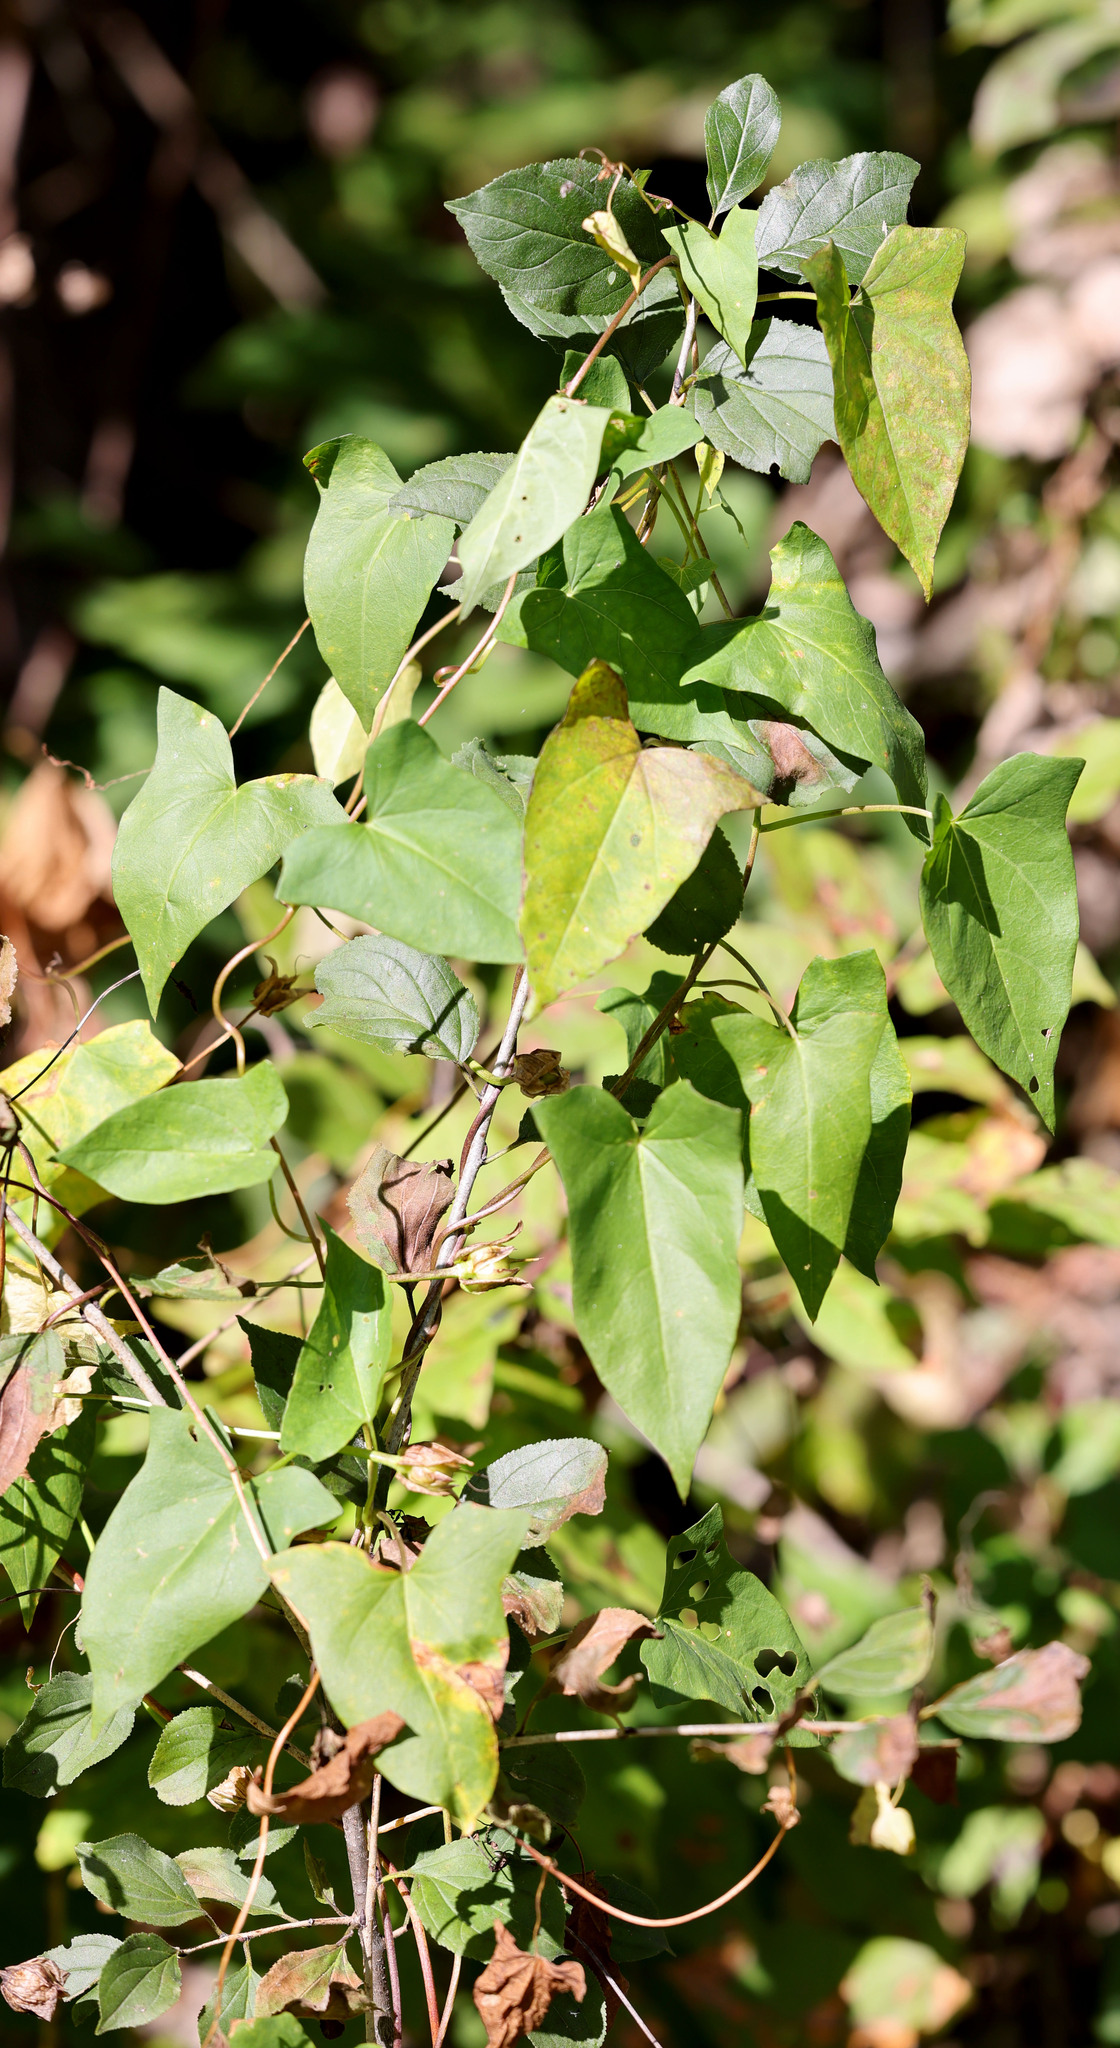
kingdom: Plantae
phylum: Tracheophyta
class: Magnoliopsida
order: Solanales
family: Convolvulaceae
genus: Calystegia
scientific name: Calystegia sepium
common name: Hedge bindweed
